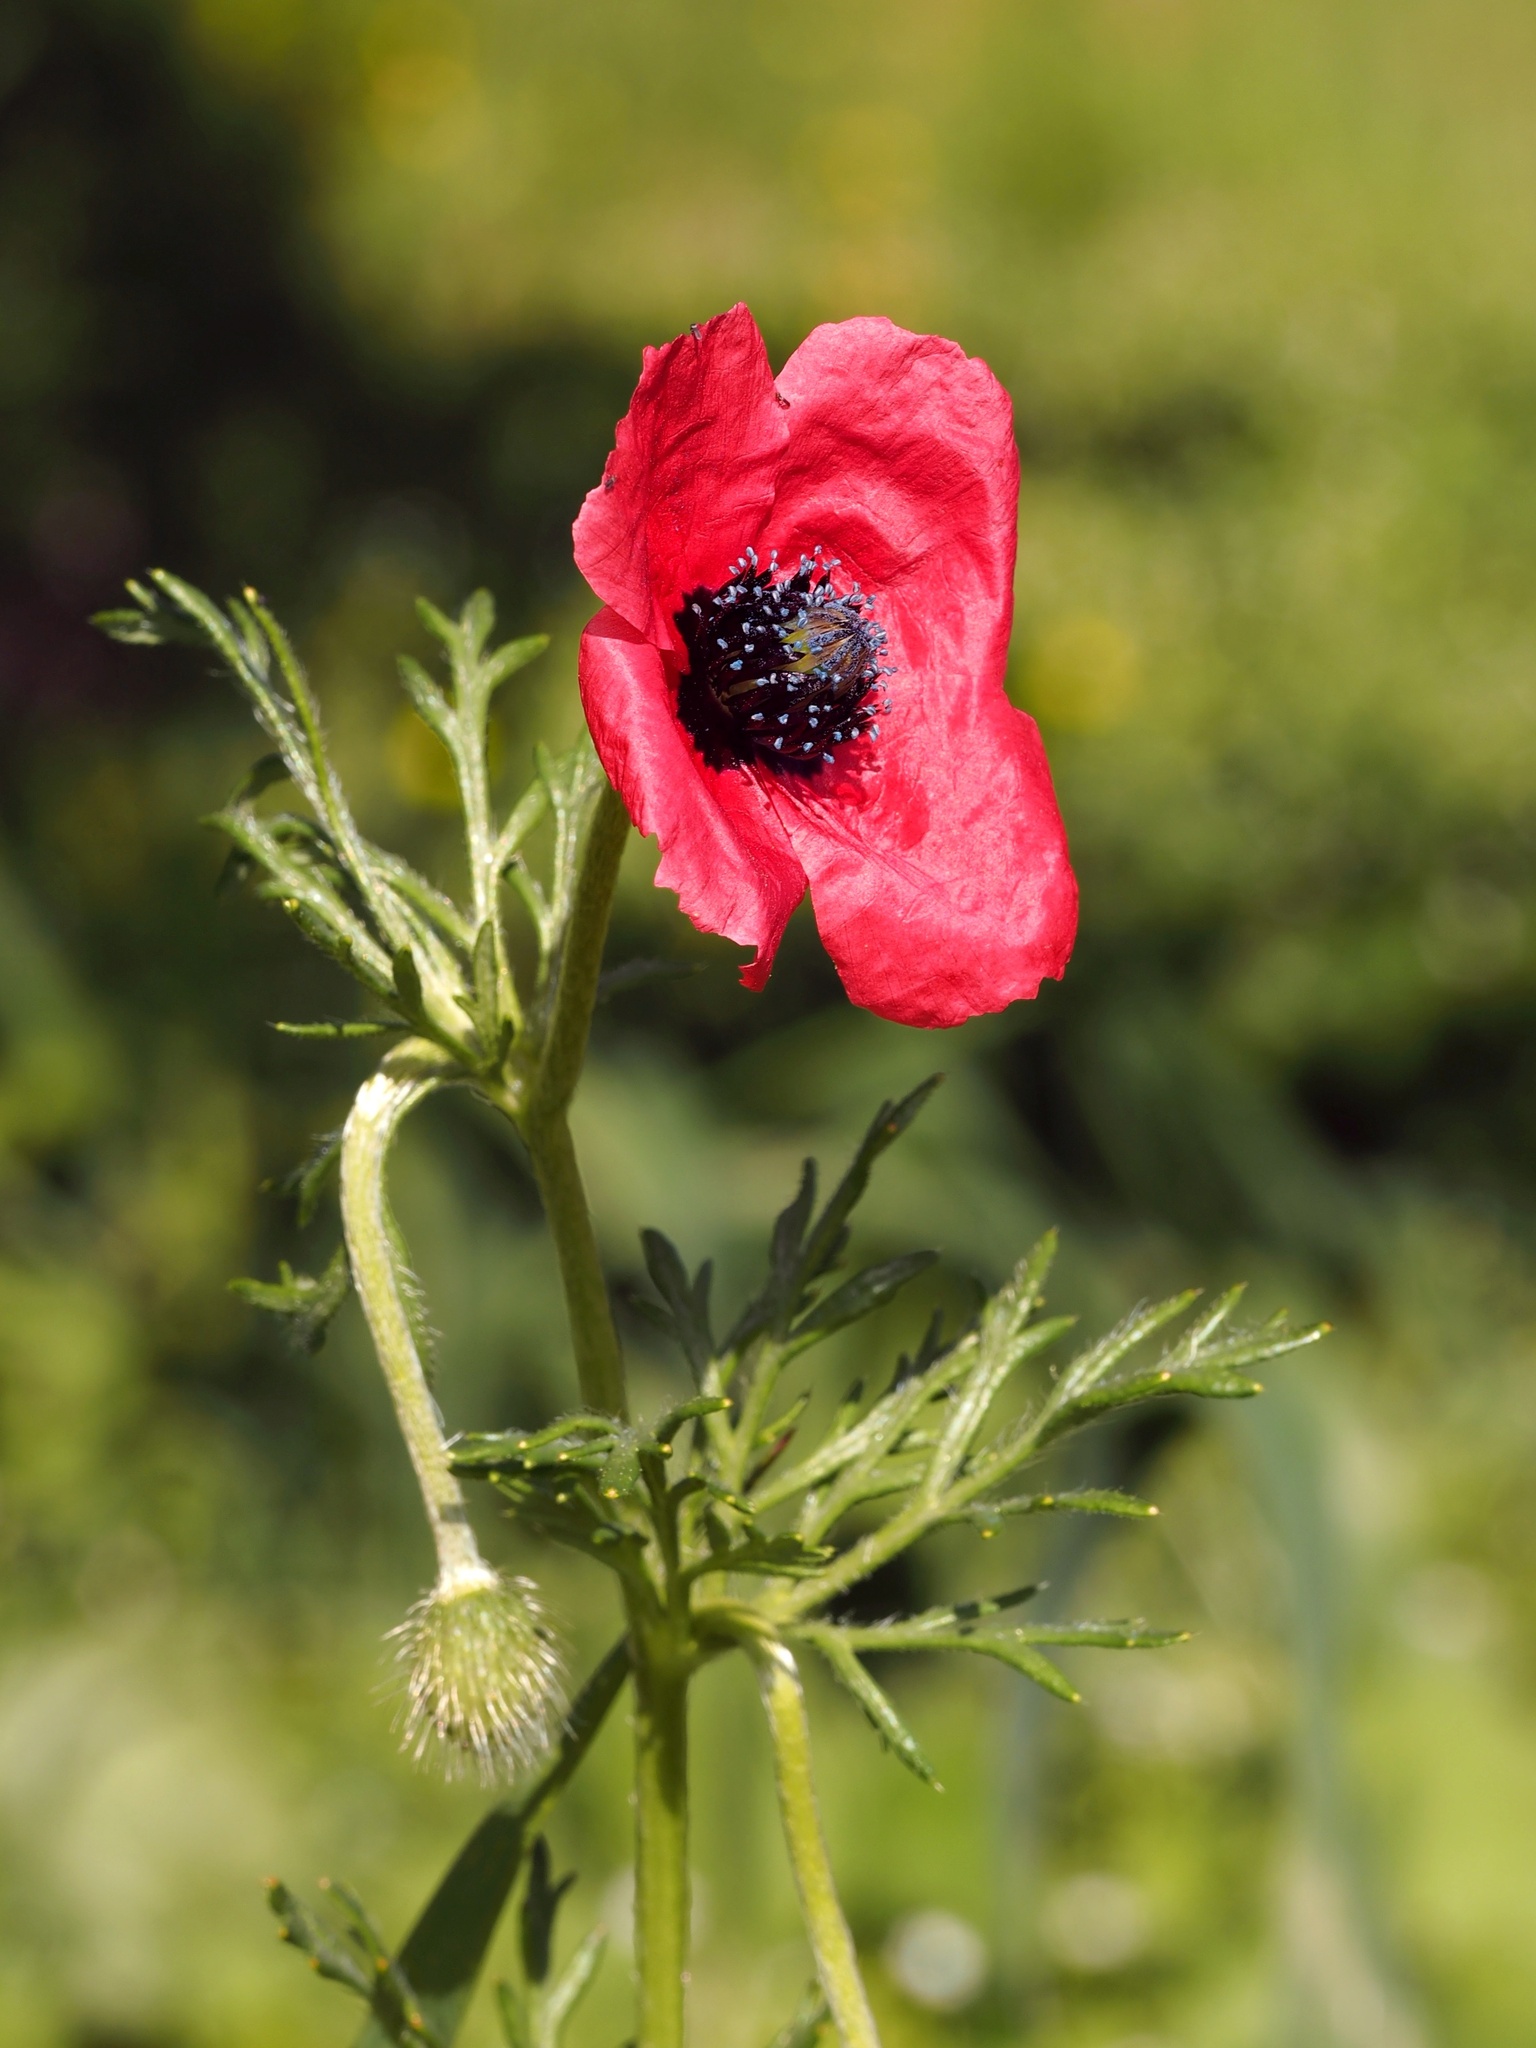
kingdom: Plantae
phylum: Tracheophyta
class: Magnoliopsida
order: Ranunculales
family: Papaveraceae
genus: Roemeria
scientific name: Roemeria hispida
